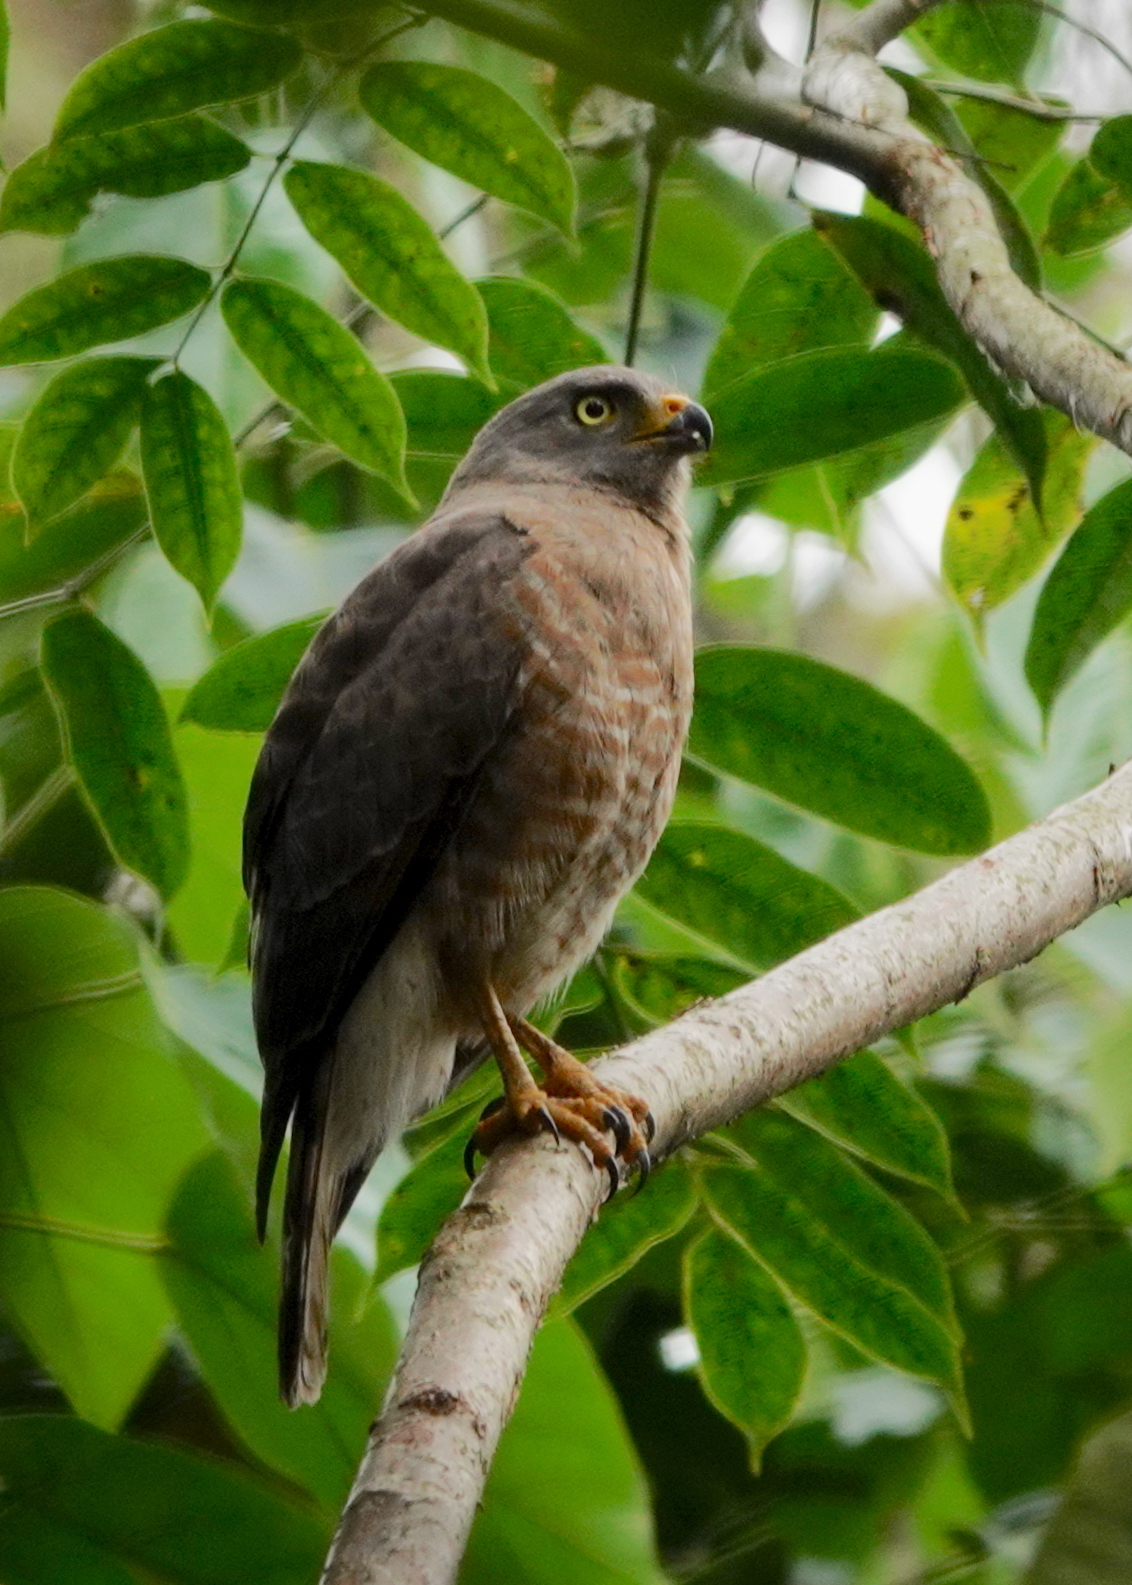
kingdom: Animalia
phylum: Chordata
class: Aves
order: Accipitriformes
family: Accipitridae
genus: Rupornis
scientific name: Rupornis magnirostris
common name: Roadside hawk
